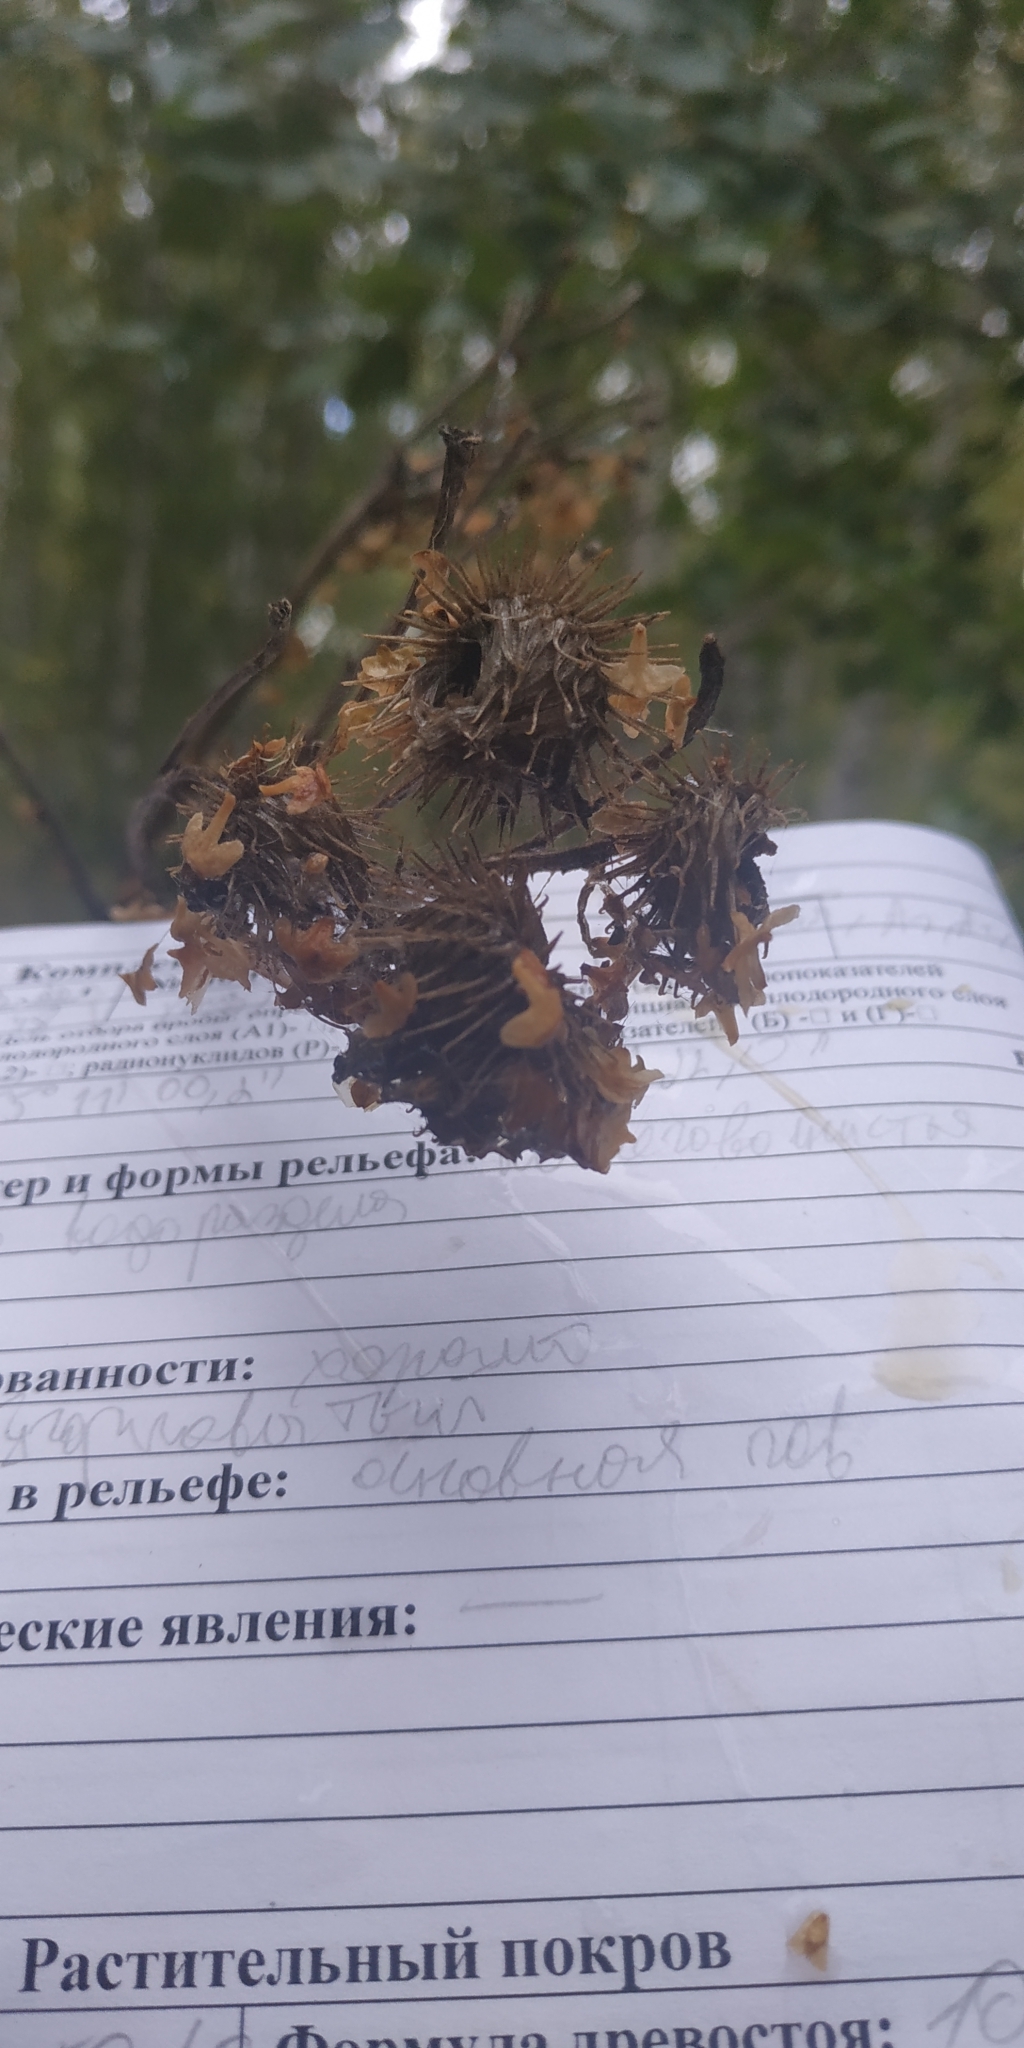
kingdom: Plantae
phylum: Tracheophyta
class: Magnoliopsida
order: Asterales
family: Asteraceae
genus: Arctium
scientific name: Arctium tomentosum
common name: Woolly burdock
